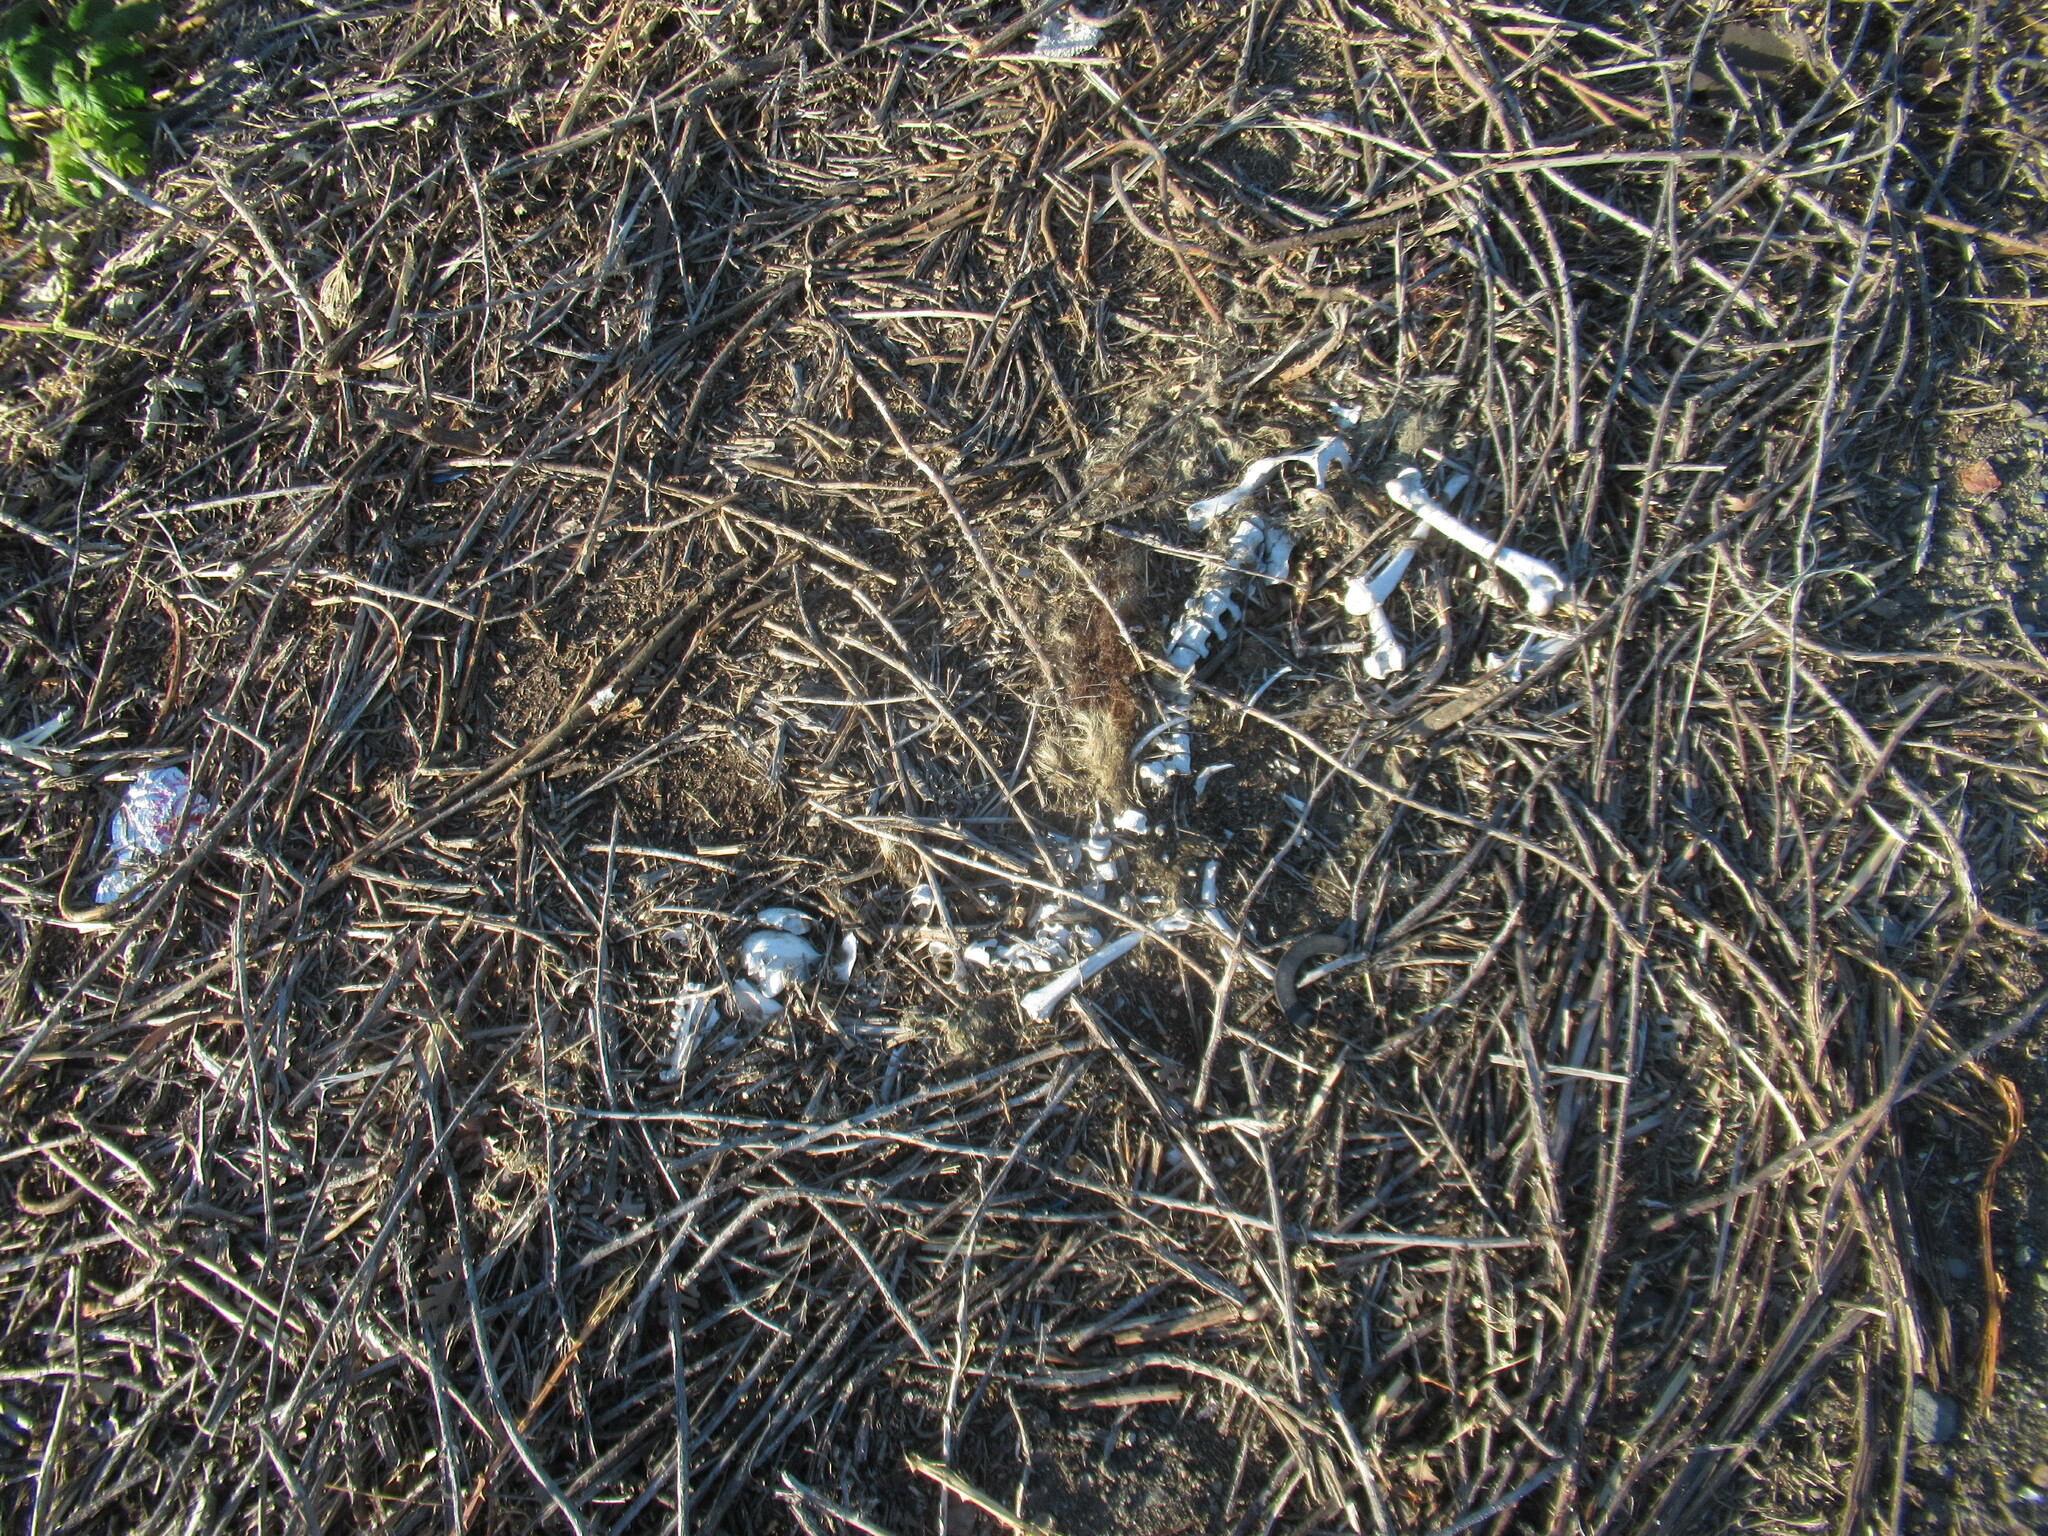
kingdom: Animalia
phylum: Chordata
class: Mammalia
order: Carnivora
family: Procyonidae
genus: Procyon
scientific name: Procyon lotor
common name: Raccoon
